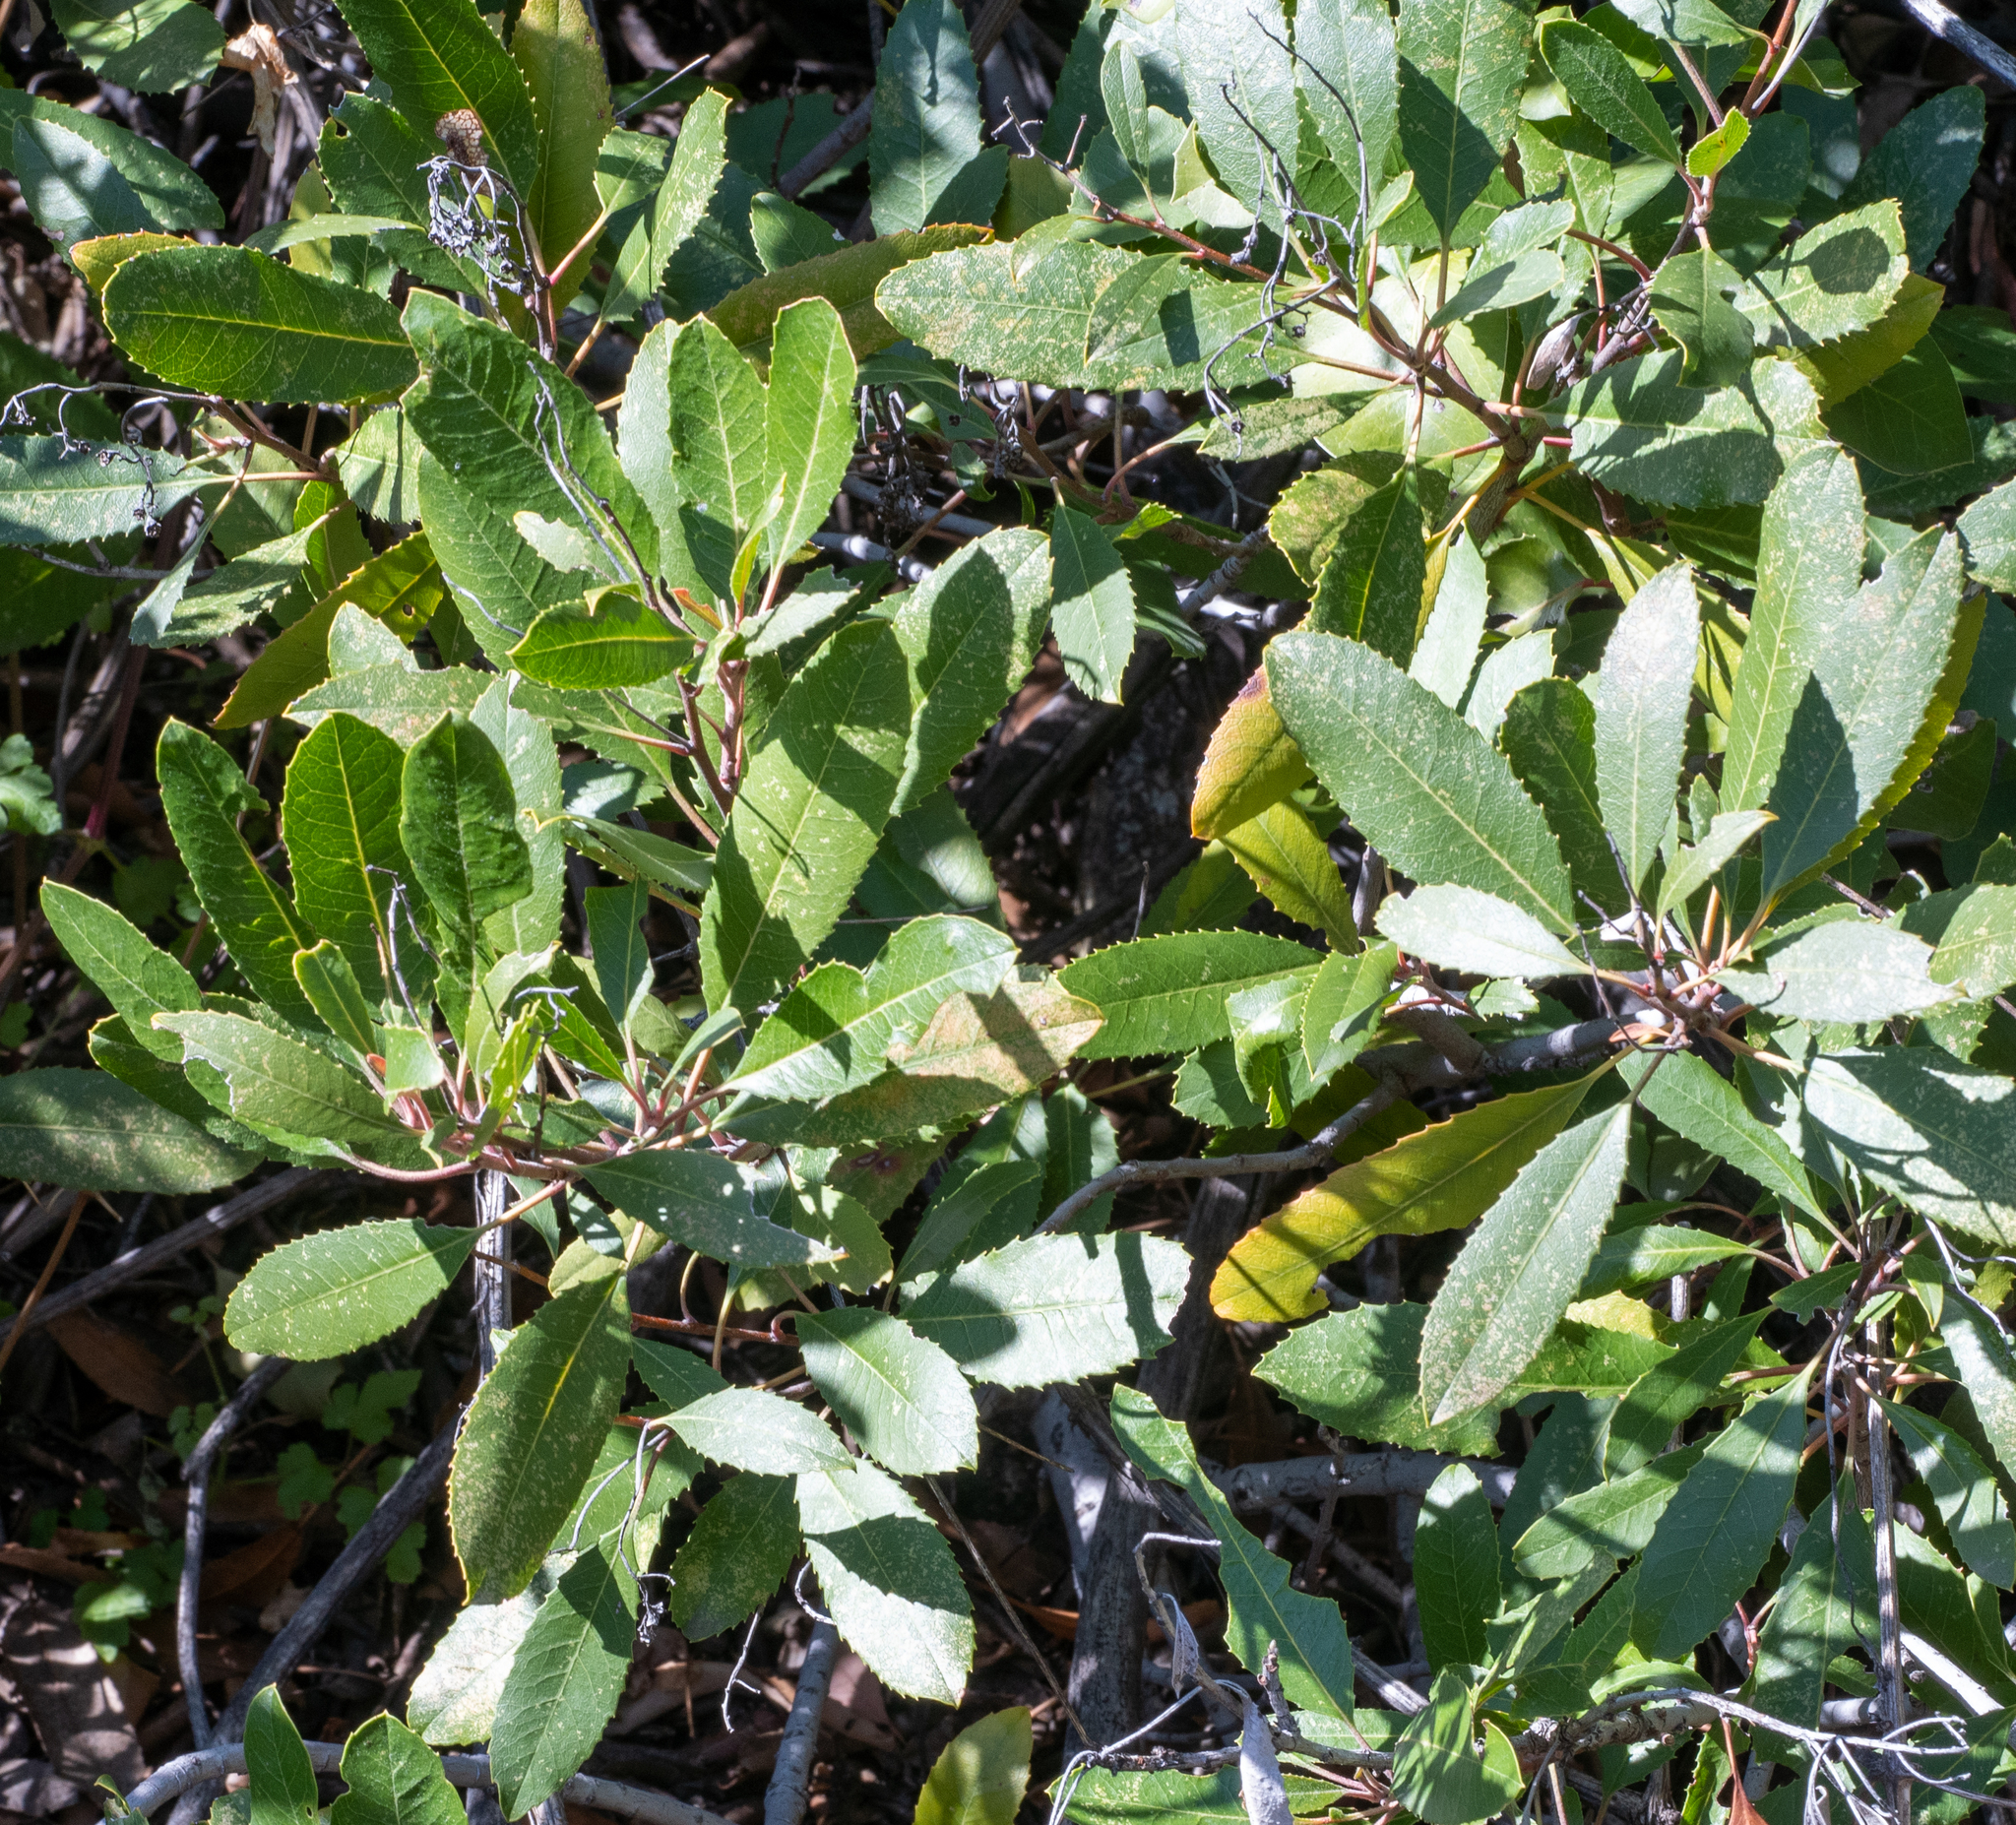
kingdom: Plantae
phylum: Tracheophyta
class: Magnoliopsida
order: Rosales
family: Rosaceae
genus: Heteromeles
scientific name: Heteromeles arbutifolia
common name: California-holly
